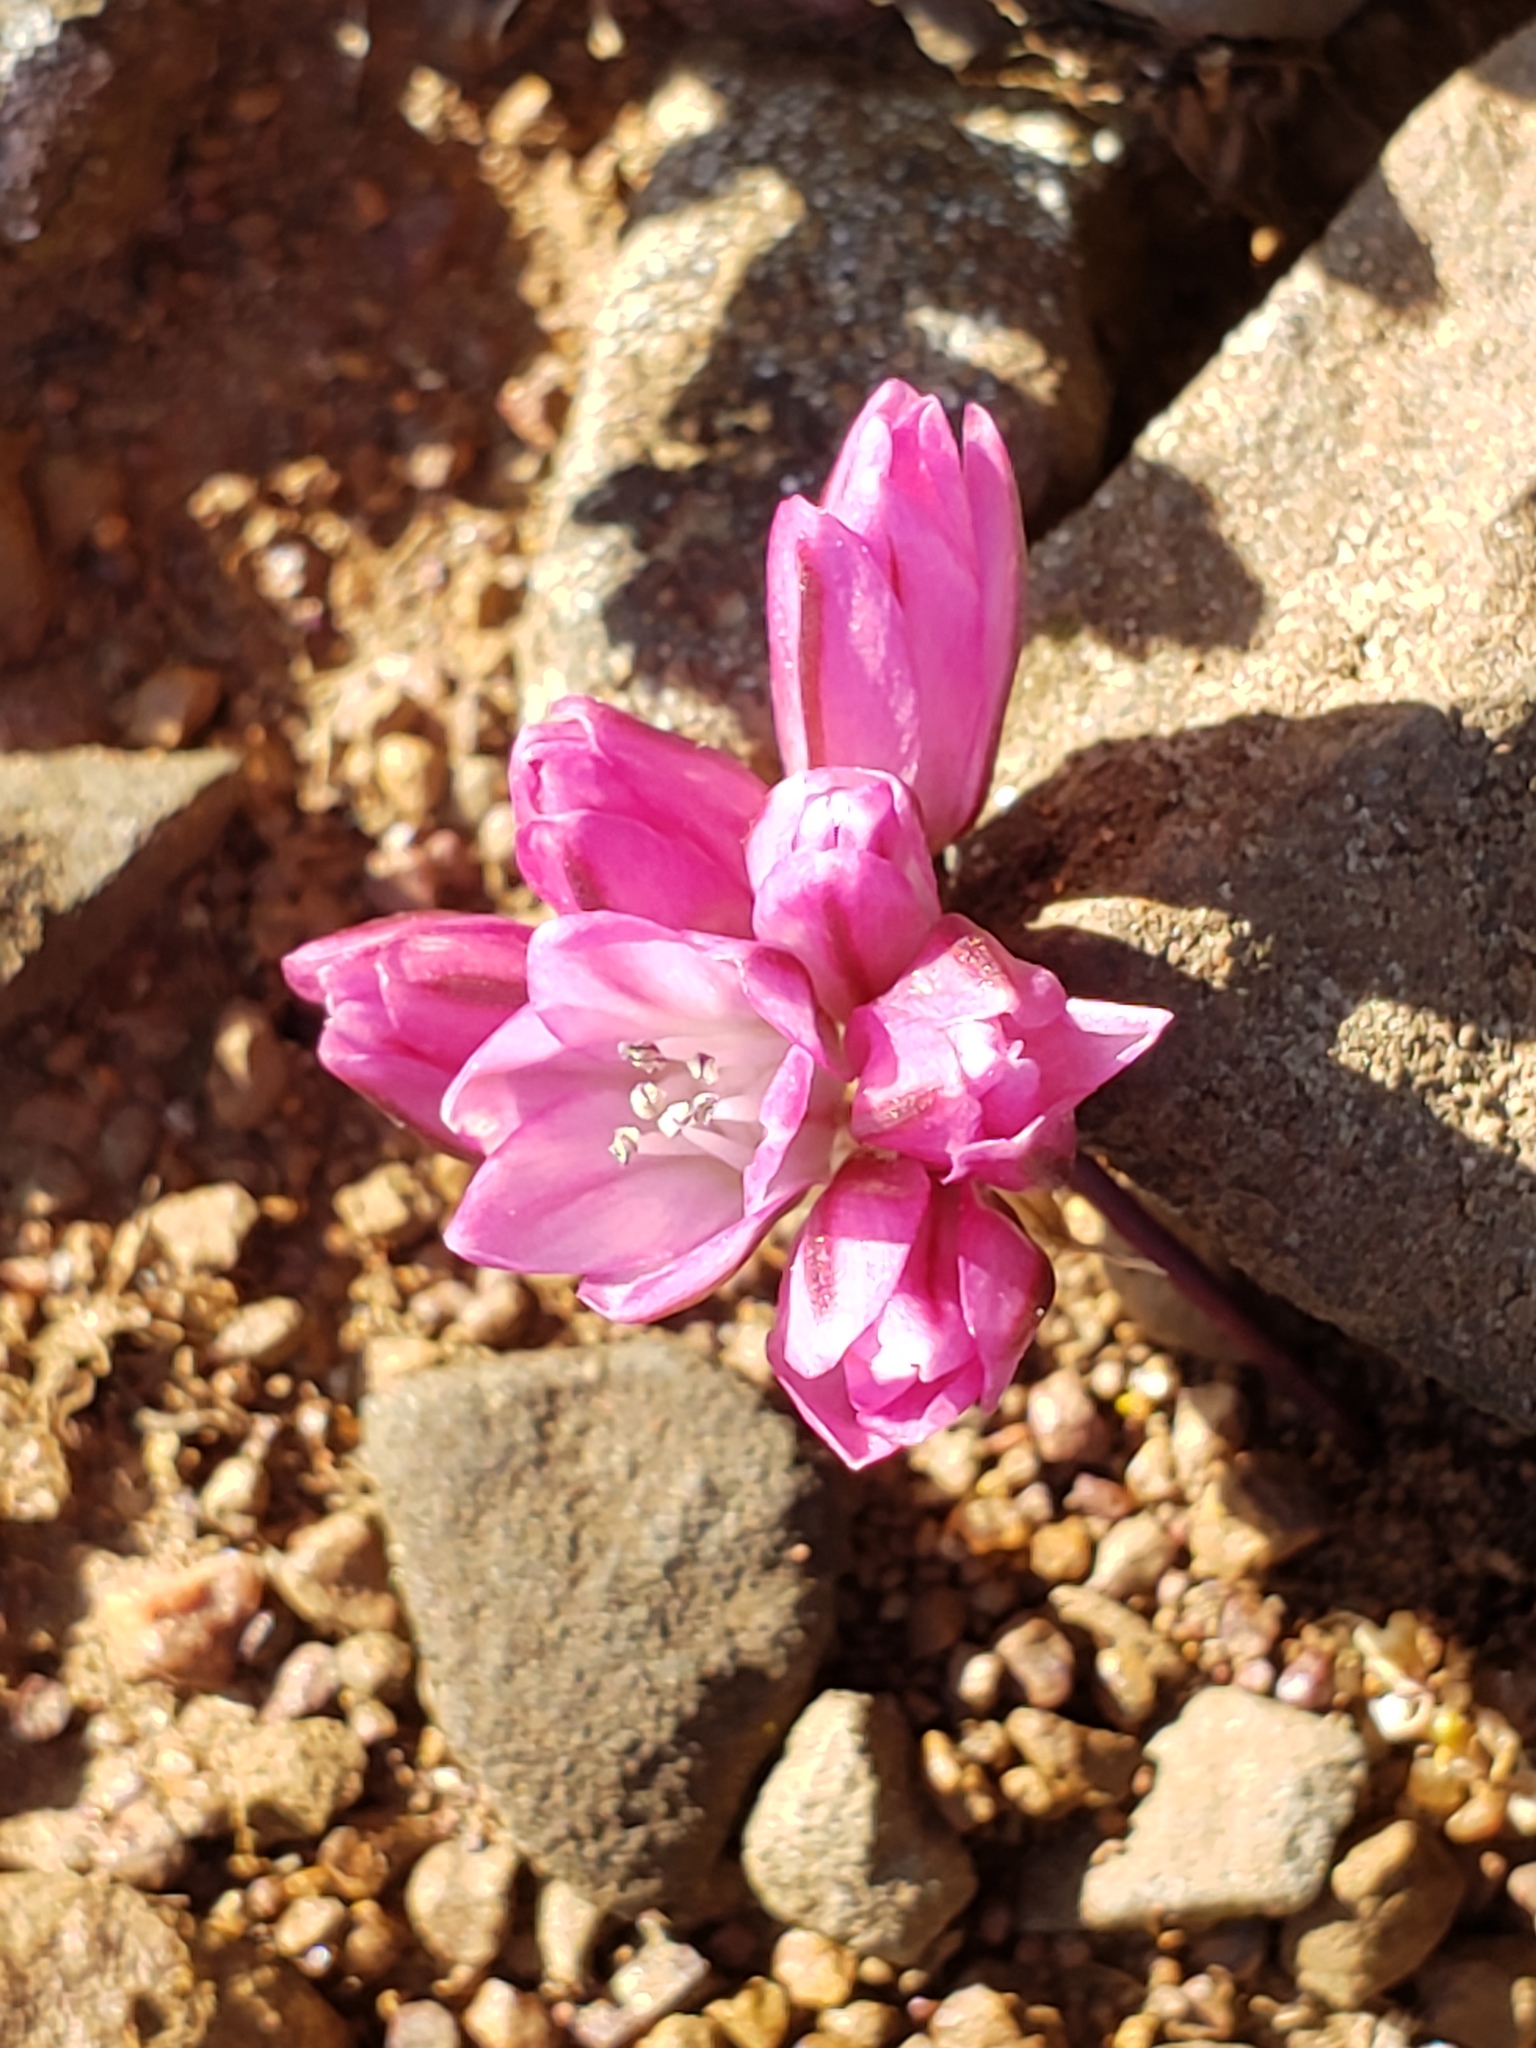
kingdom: Plantae
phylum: Tracheophyta
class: Liliopsida
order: Asparagales
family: Amaryllidaceae
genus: Allium
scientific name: Allium cratericola
